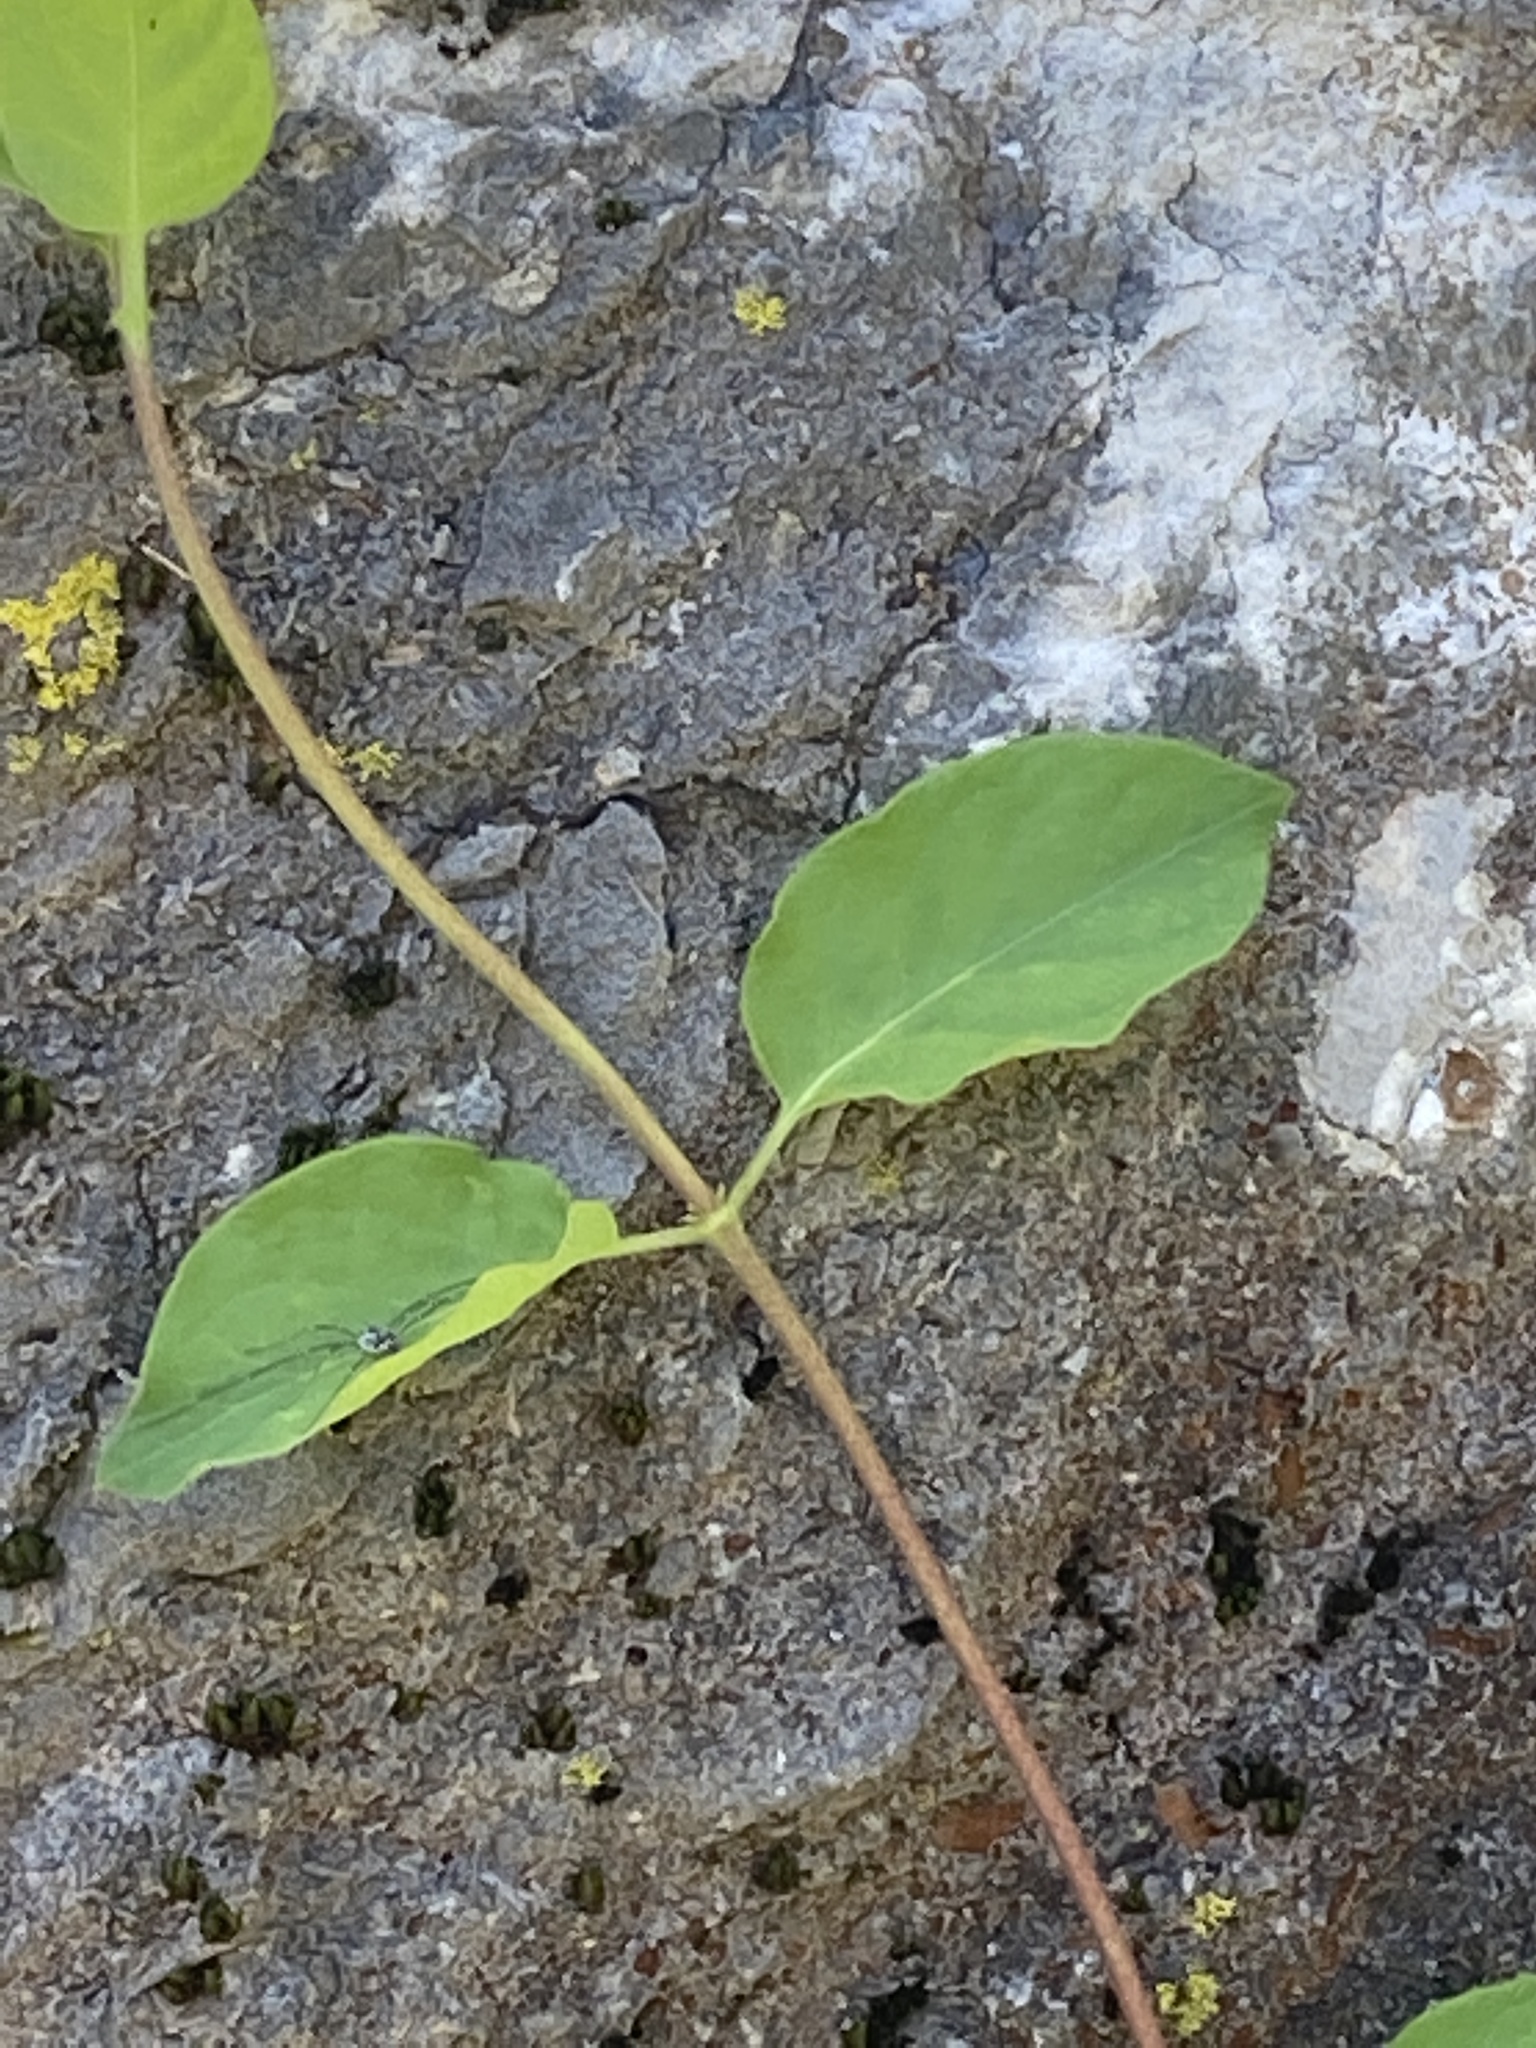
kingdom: Plantae
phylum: Tracheophyta
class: Magnoliopsida
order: Dipsacales
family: Caprifoliaceae
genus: Lonicera
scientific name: Lonicera japonica
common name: Japanese honeysuckle
